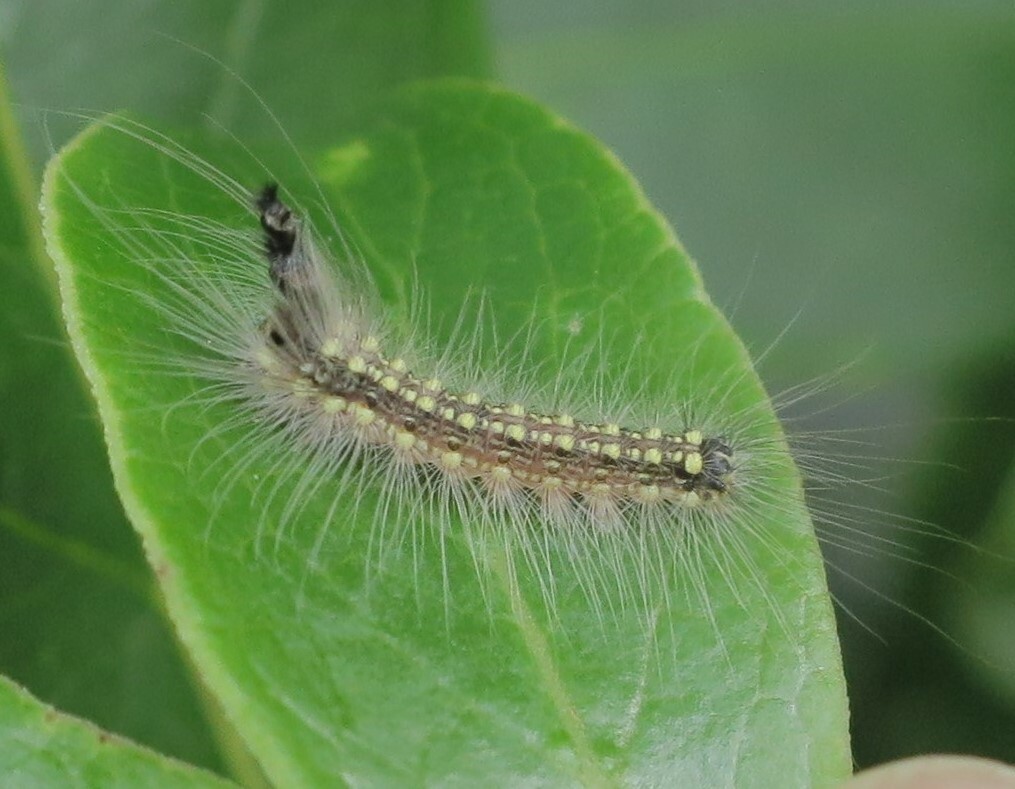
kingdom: Animalia
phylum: Arthropoda
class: Insecta
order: Lepidoptera
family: Nolidae
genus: Uraba
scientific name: Uraba lugens
